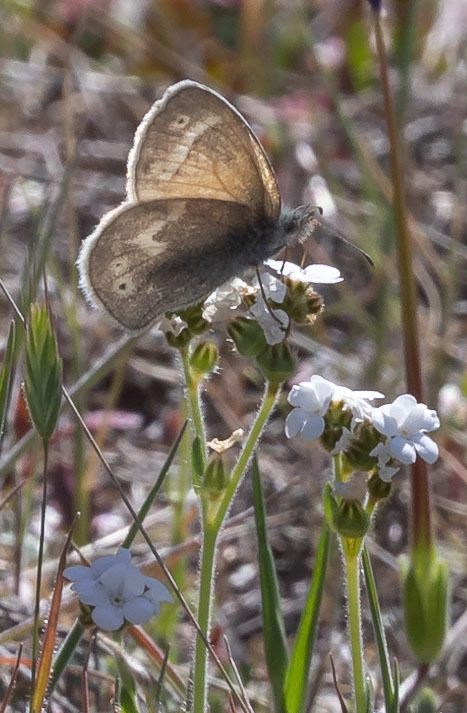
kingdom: Animalia
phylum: Arthropoda
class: Insecta
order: Lepidoptera
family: Nymphalidae
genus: Coenonympha
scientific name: Coenonympha california
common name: Common ringlet
